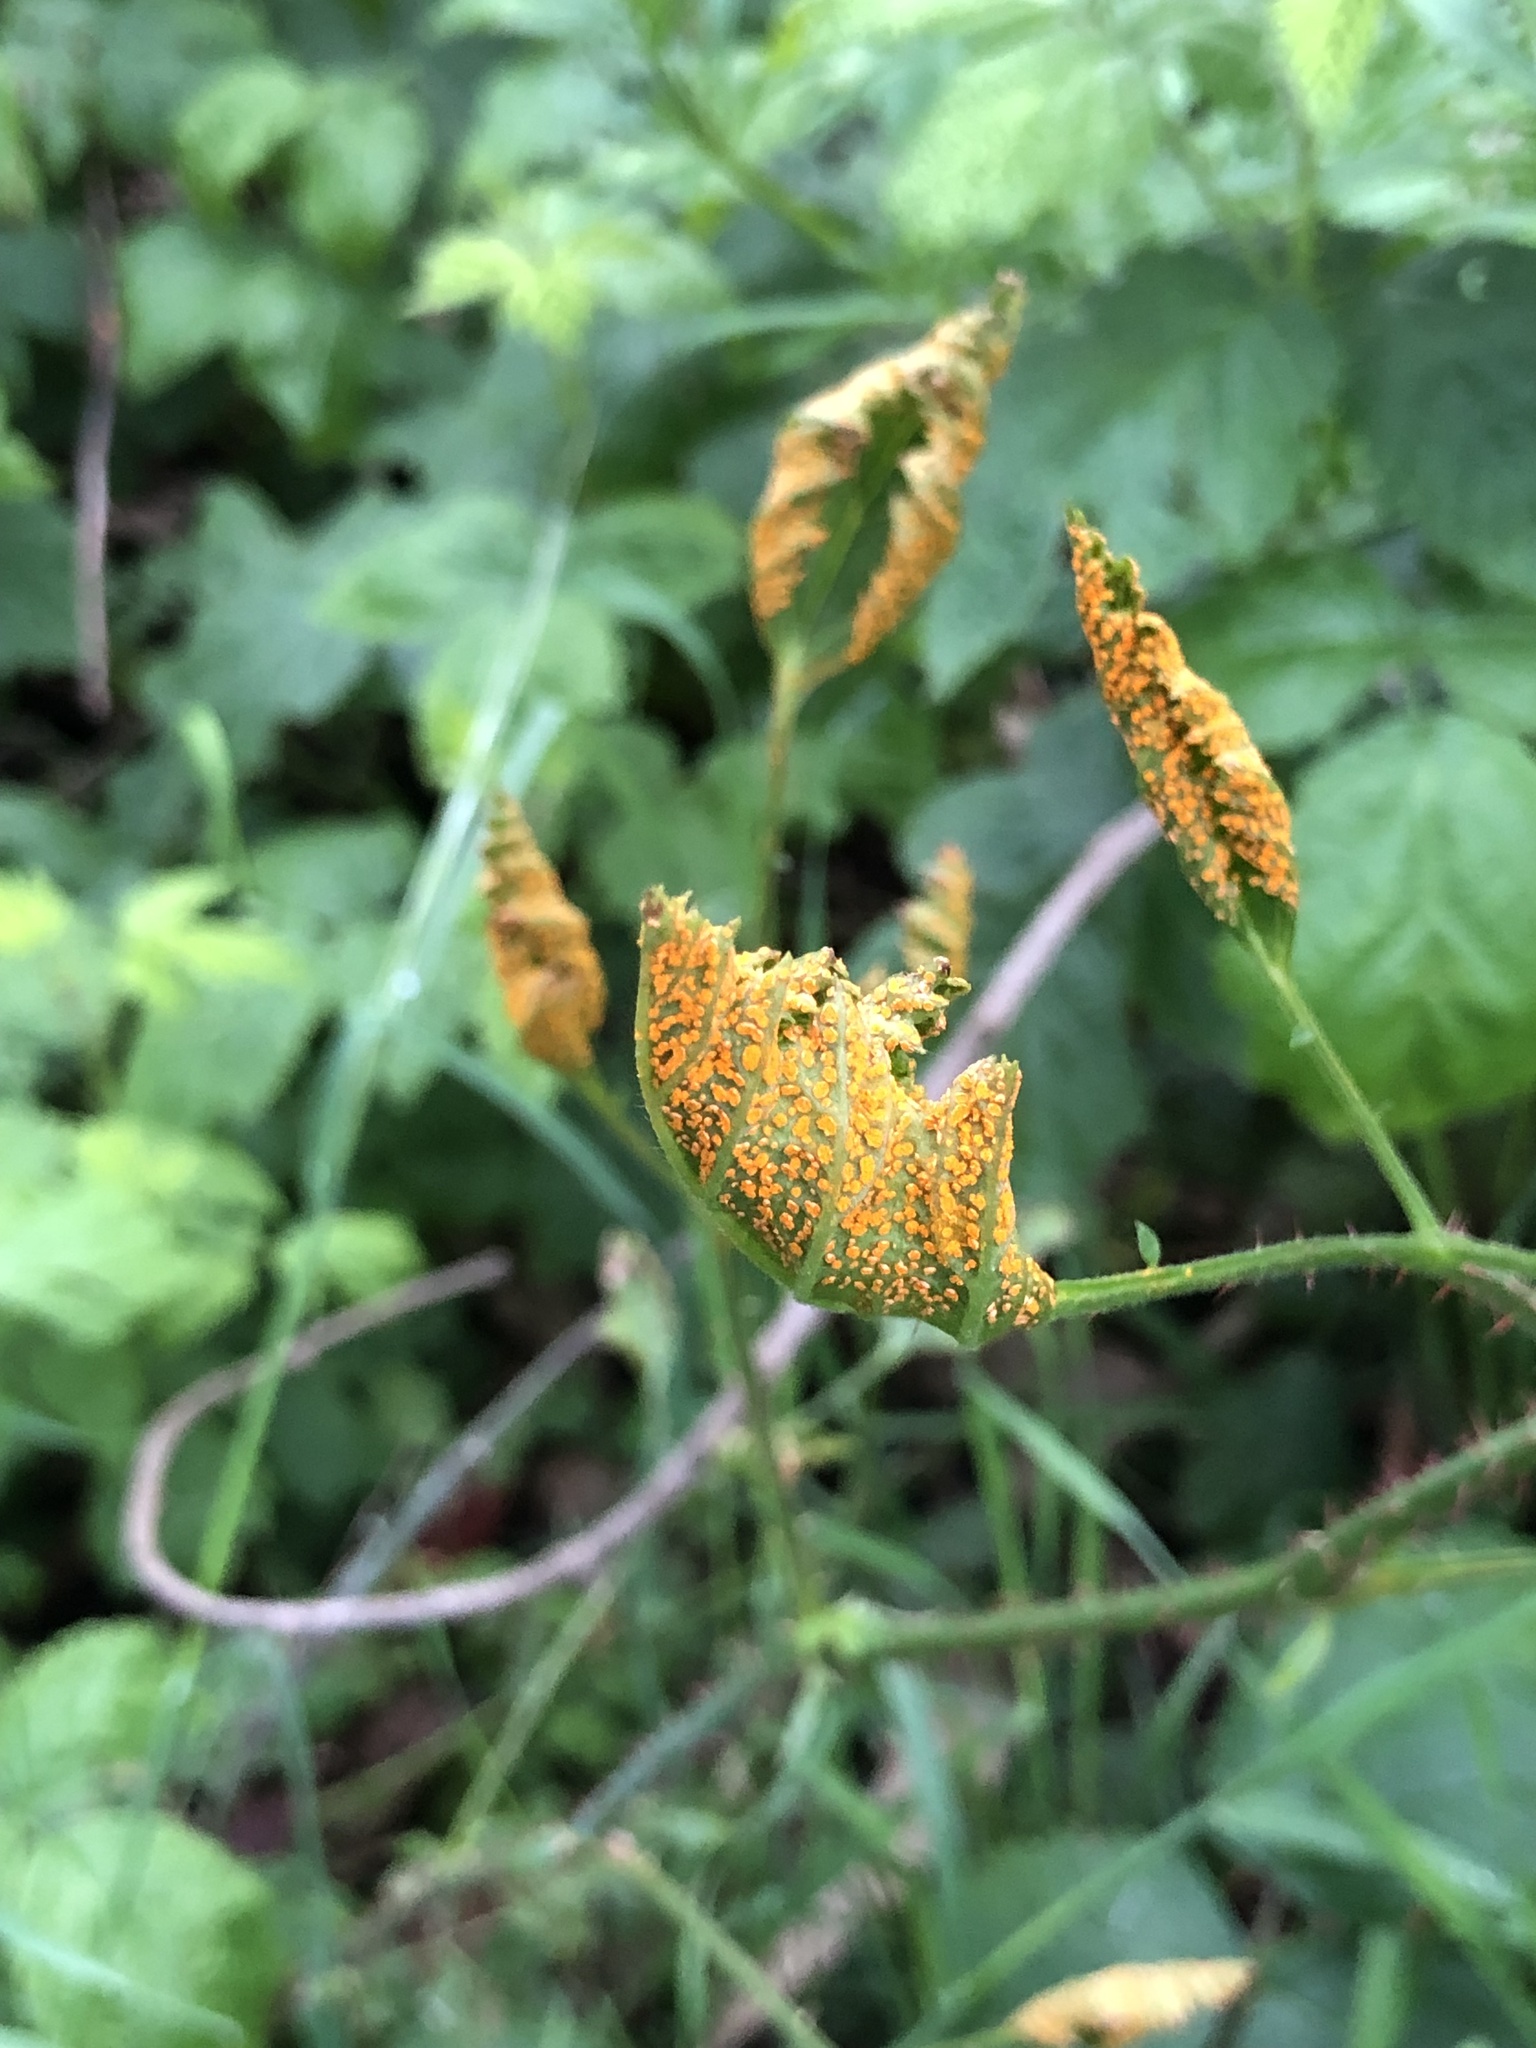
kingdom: Fungi
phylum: Basidiomycota
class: Pucciniomycetes
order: Pucciniales
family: Phragmidiaceae
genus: Arthuriomyces
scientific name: Arthuriomyces peckianus
